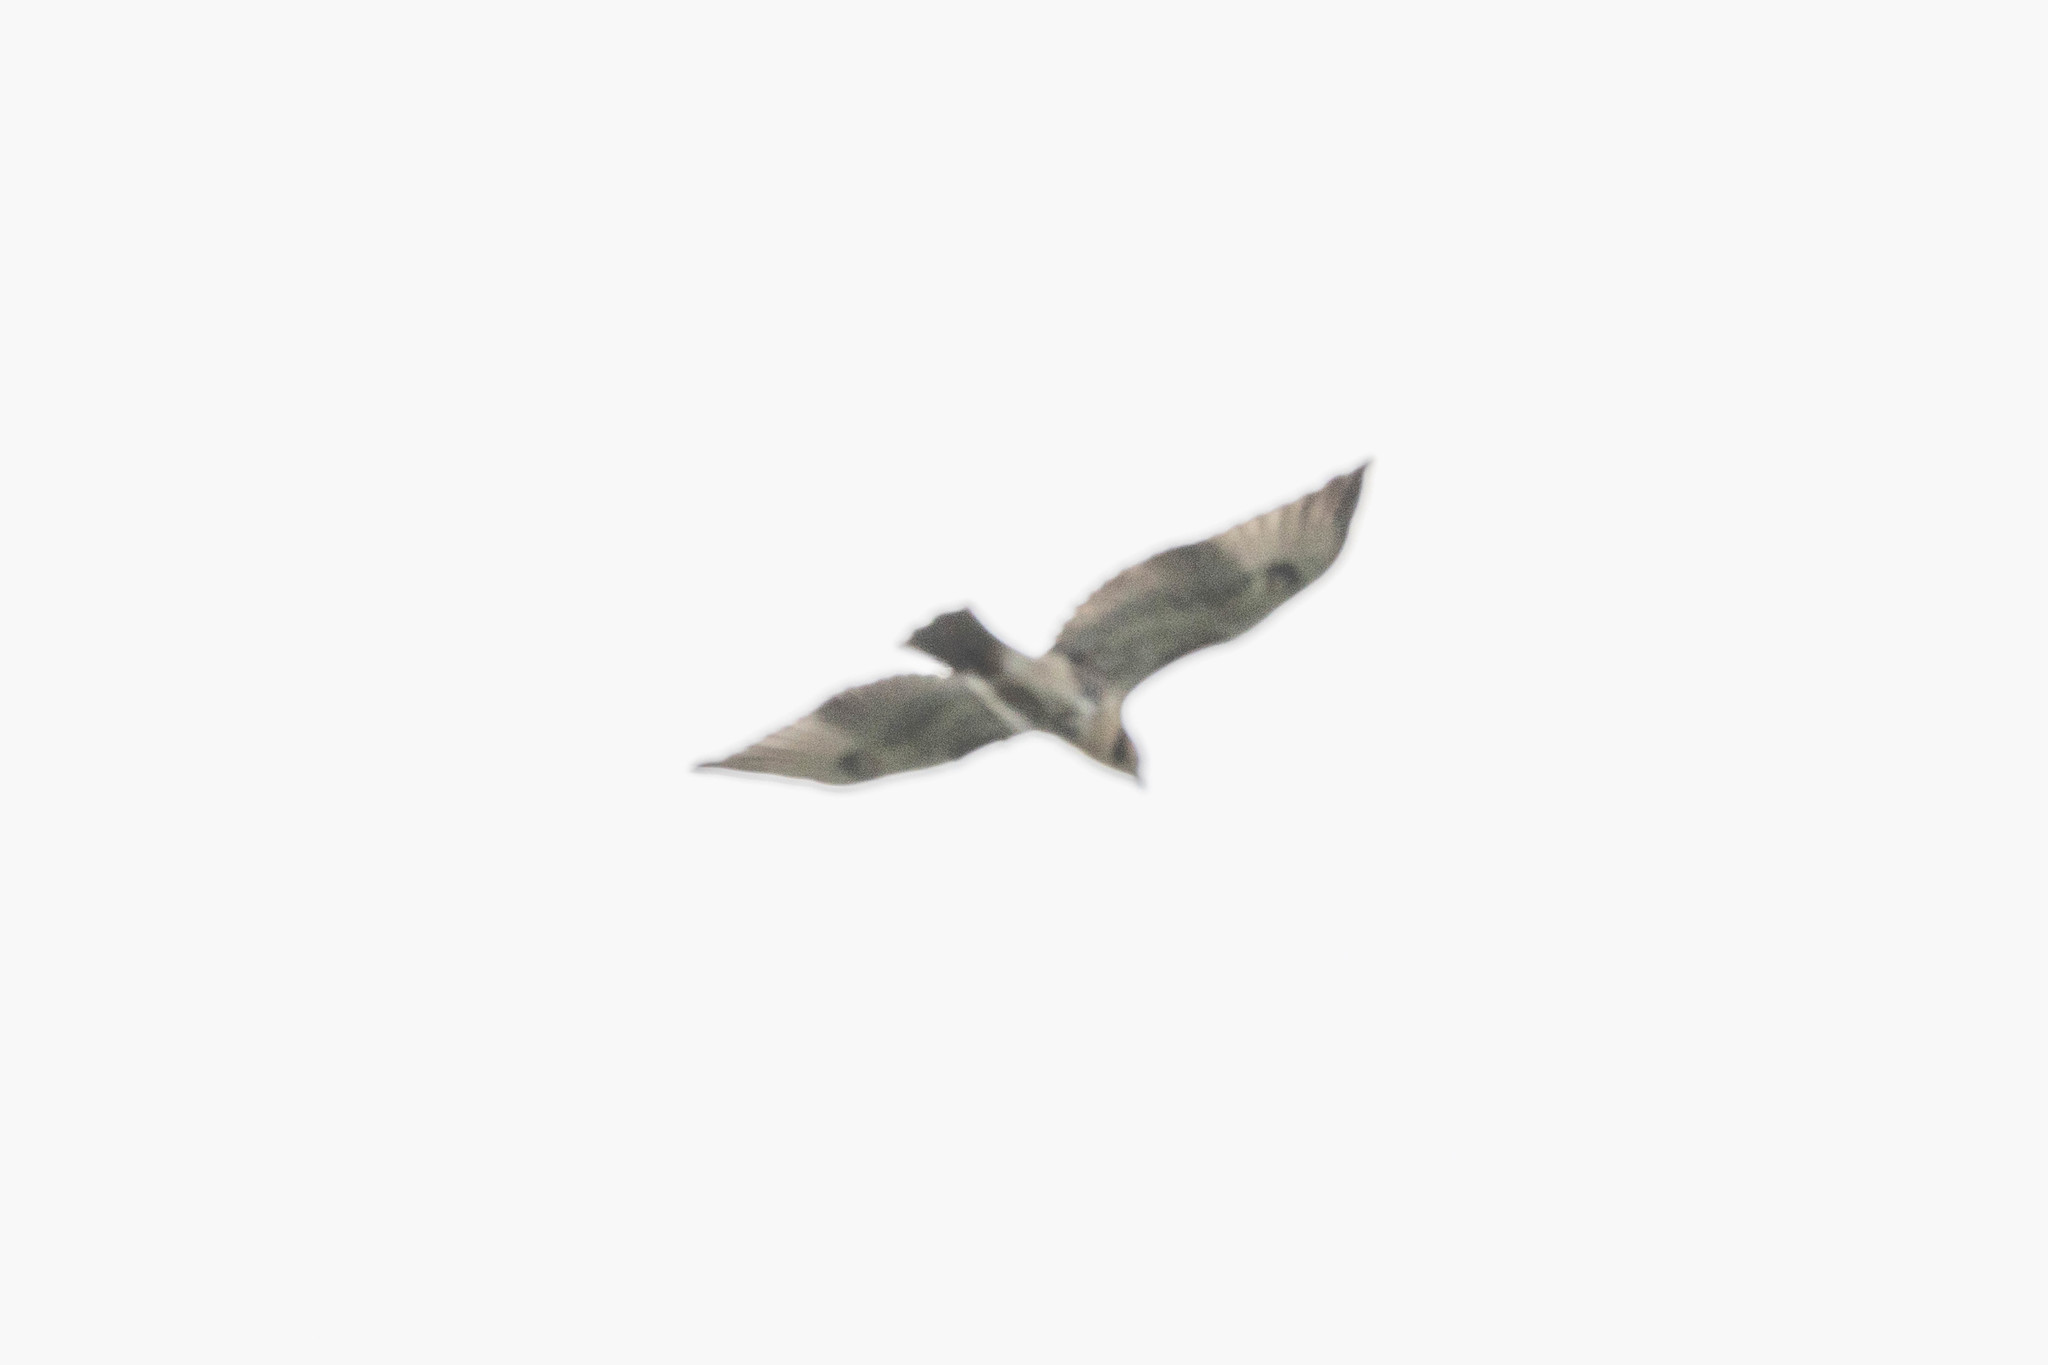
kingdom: Animalia
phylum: Chordata
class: Aves
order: Accipitriformes
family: Accipitridae
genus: Buteo
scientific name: Buteo jamaicensis
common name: Red-tailed hawk
